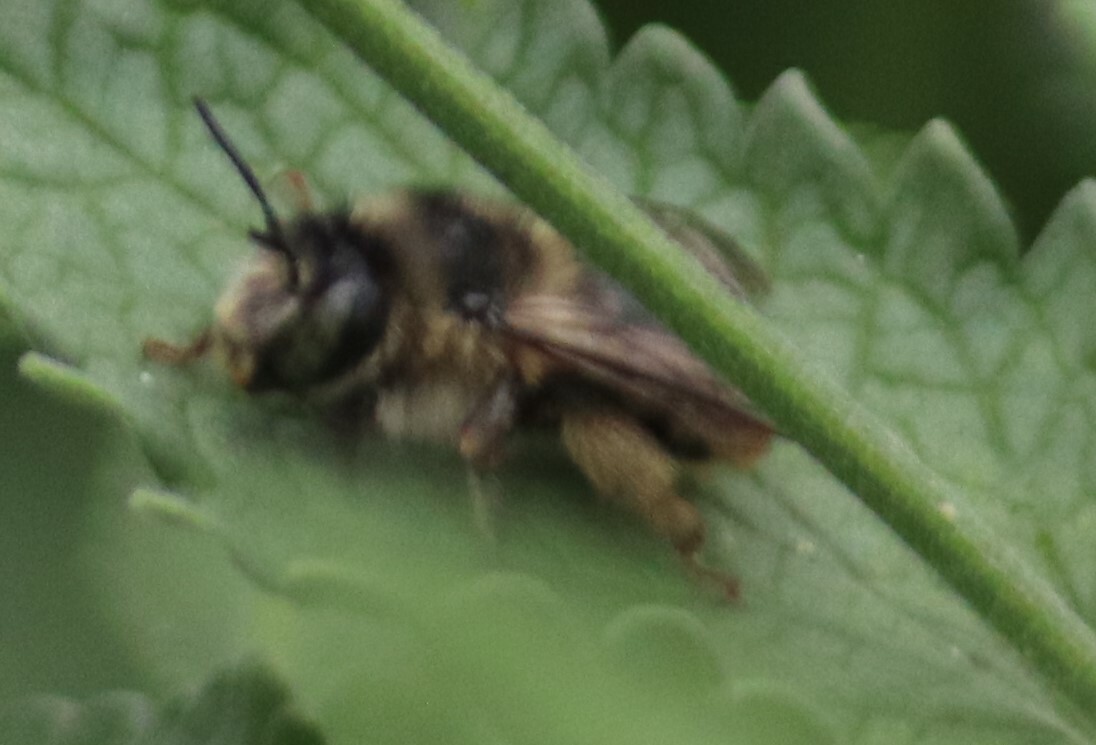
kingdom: Animalia
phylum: Arthropoda
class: Insecta
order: Hymenoptera
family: Apidae
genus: Anthophora
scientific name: Anthophora terminalis
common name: Orange-tipped wood-digger bee
